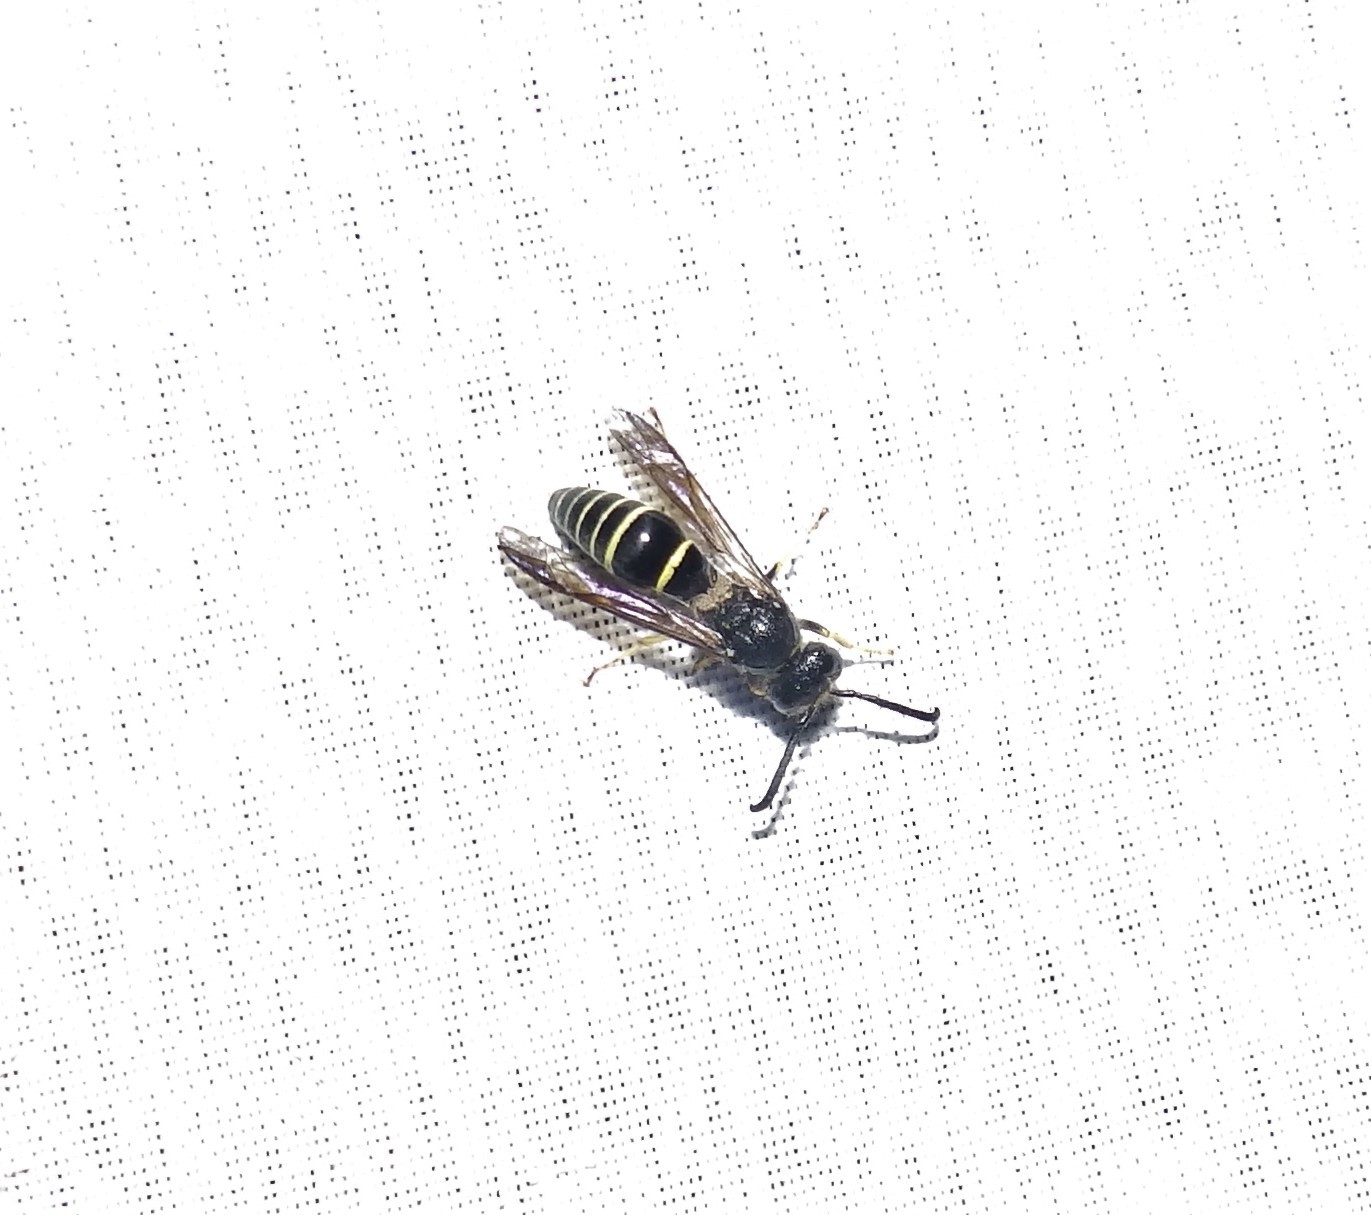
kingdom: Animalia
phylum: Arthropoda
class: Insecta
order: Hymenoptera
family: Vespidae
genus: Ancistrocerus
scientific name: Ancistrocerus
